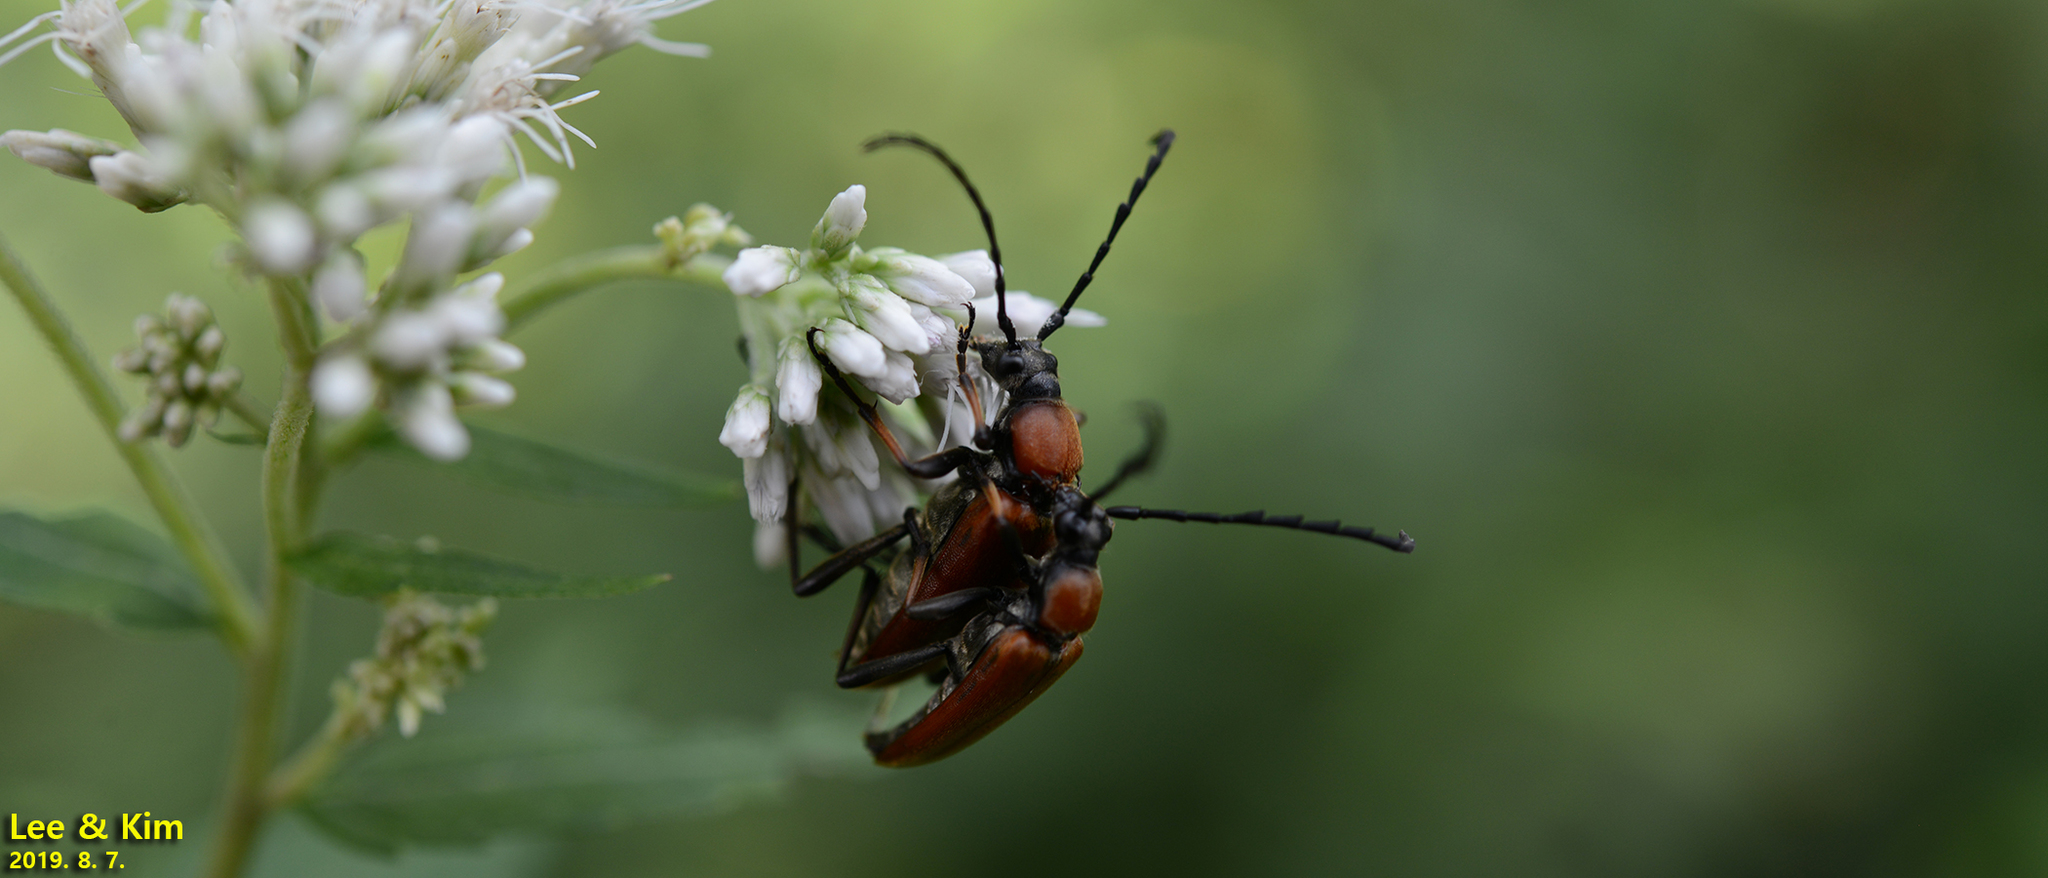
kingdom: Animalia
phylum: Arthropoda
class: Insecta
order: Coleoptera
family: Cerambycidae
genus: Stictoleptura
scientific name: Stictoleptura dichroa
